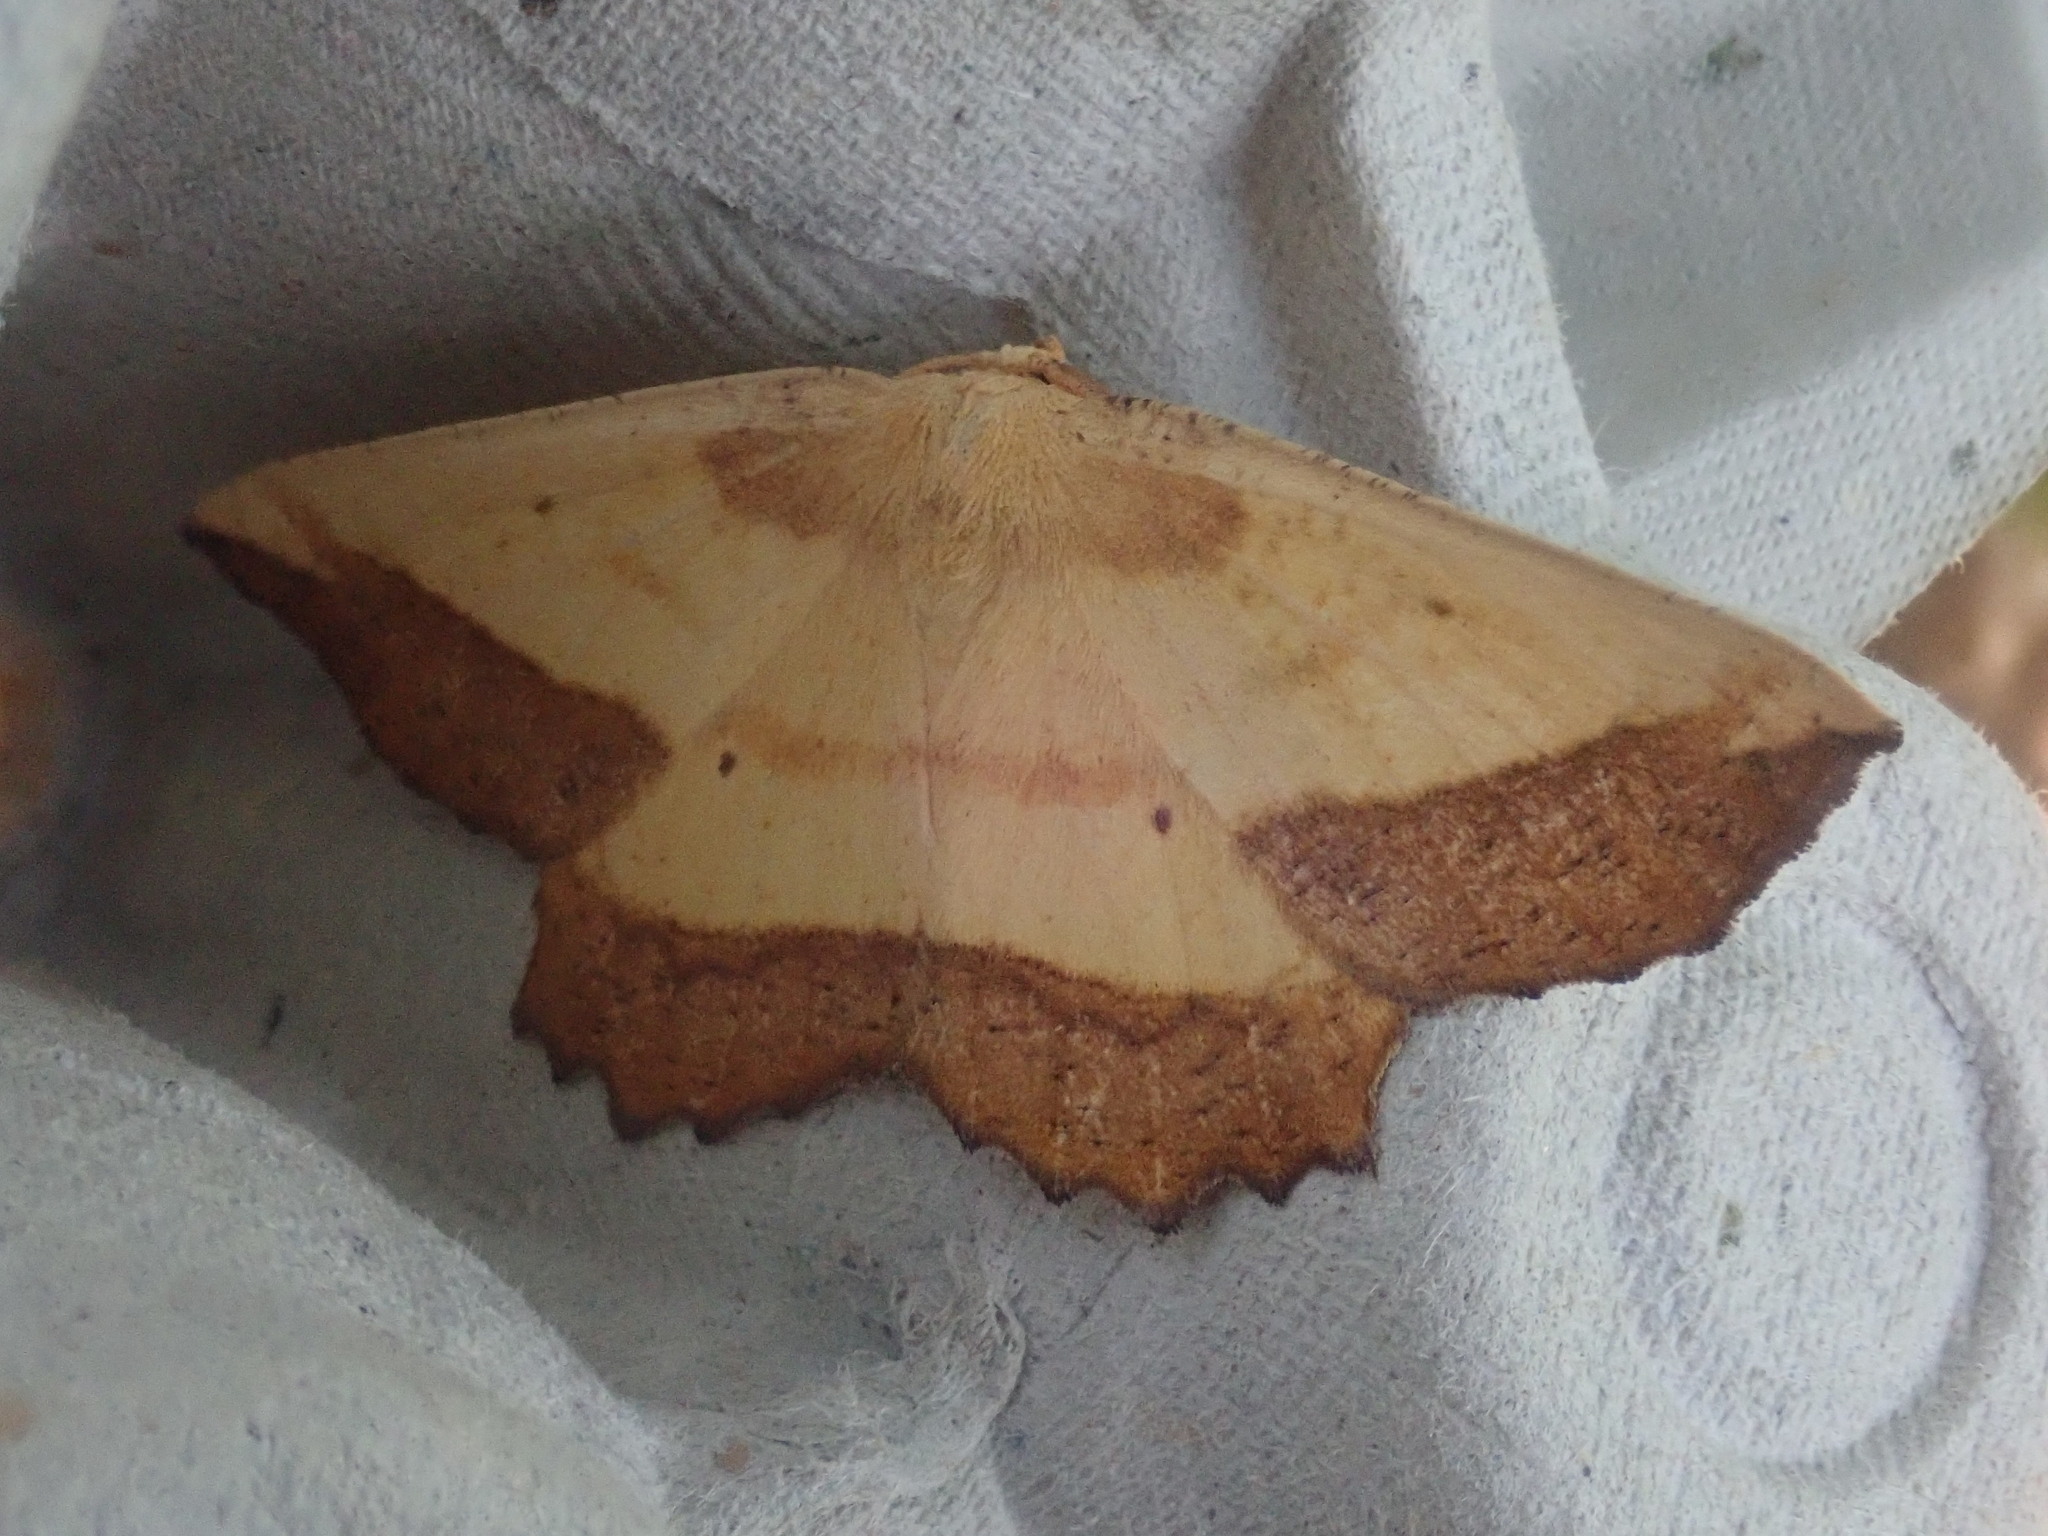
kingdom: Animalia
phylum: Arthropoda
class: Insecta
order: Lepidoptera
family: Geometridae
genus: Euchlaena
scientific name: Euchlaena serrata
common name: Saw wing
